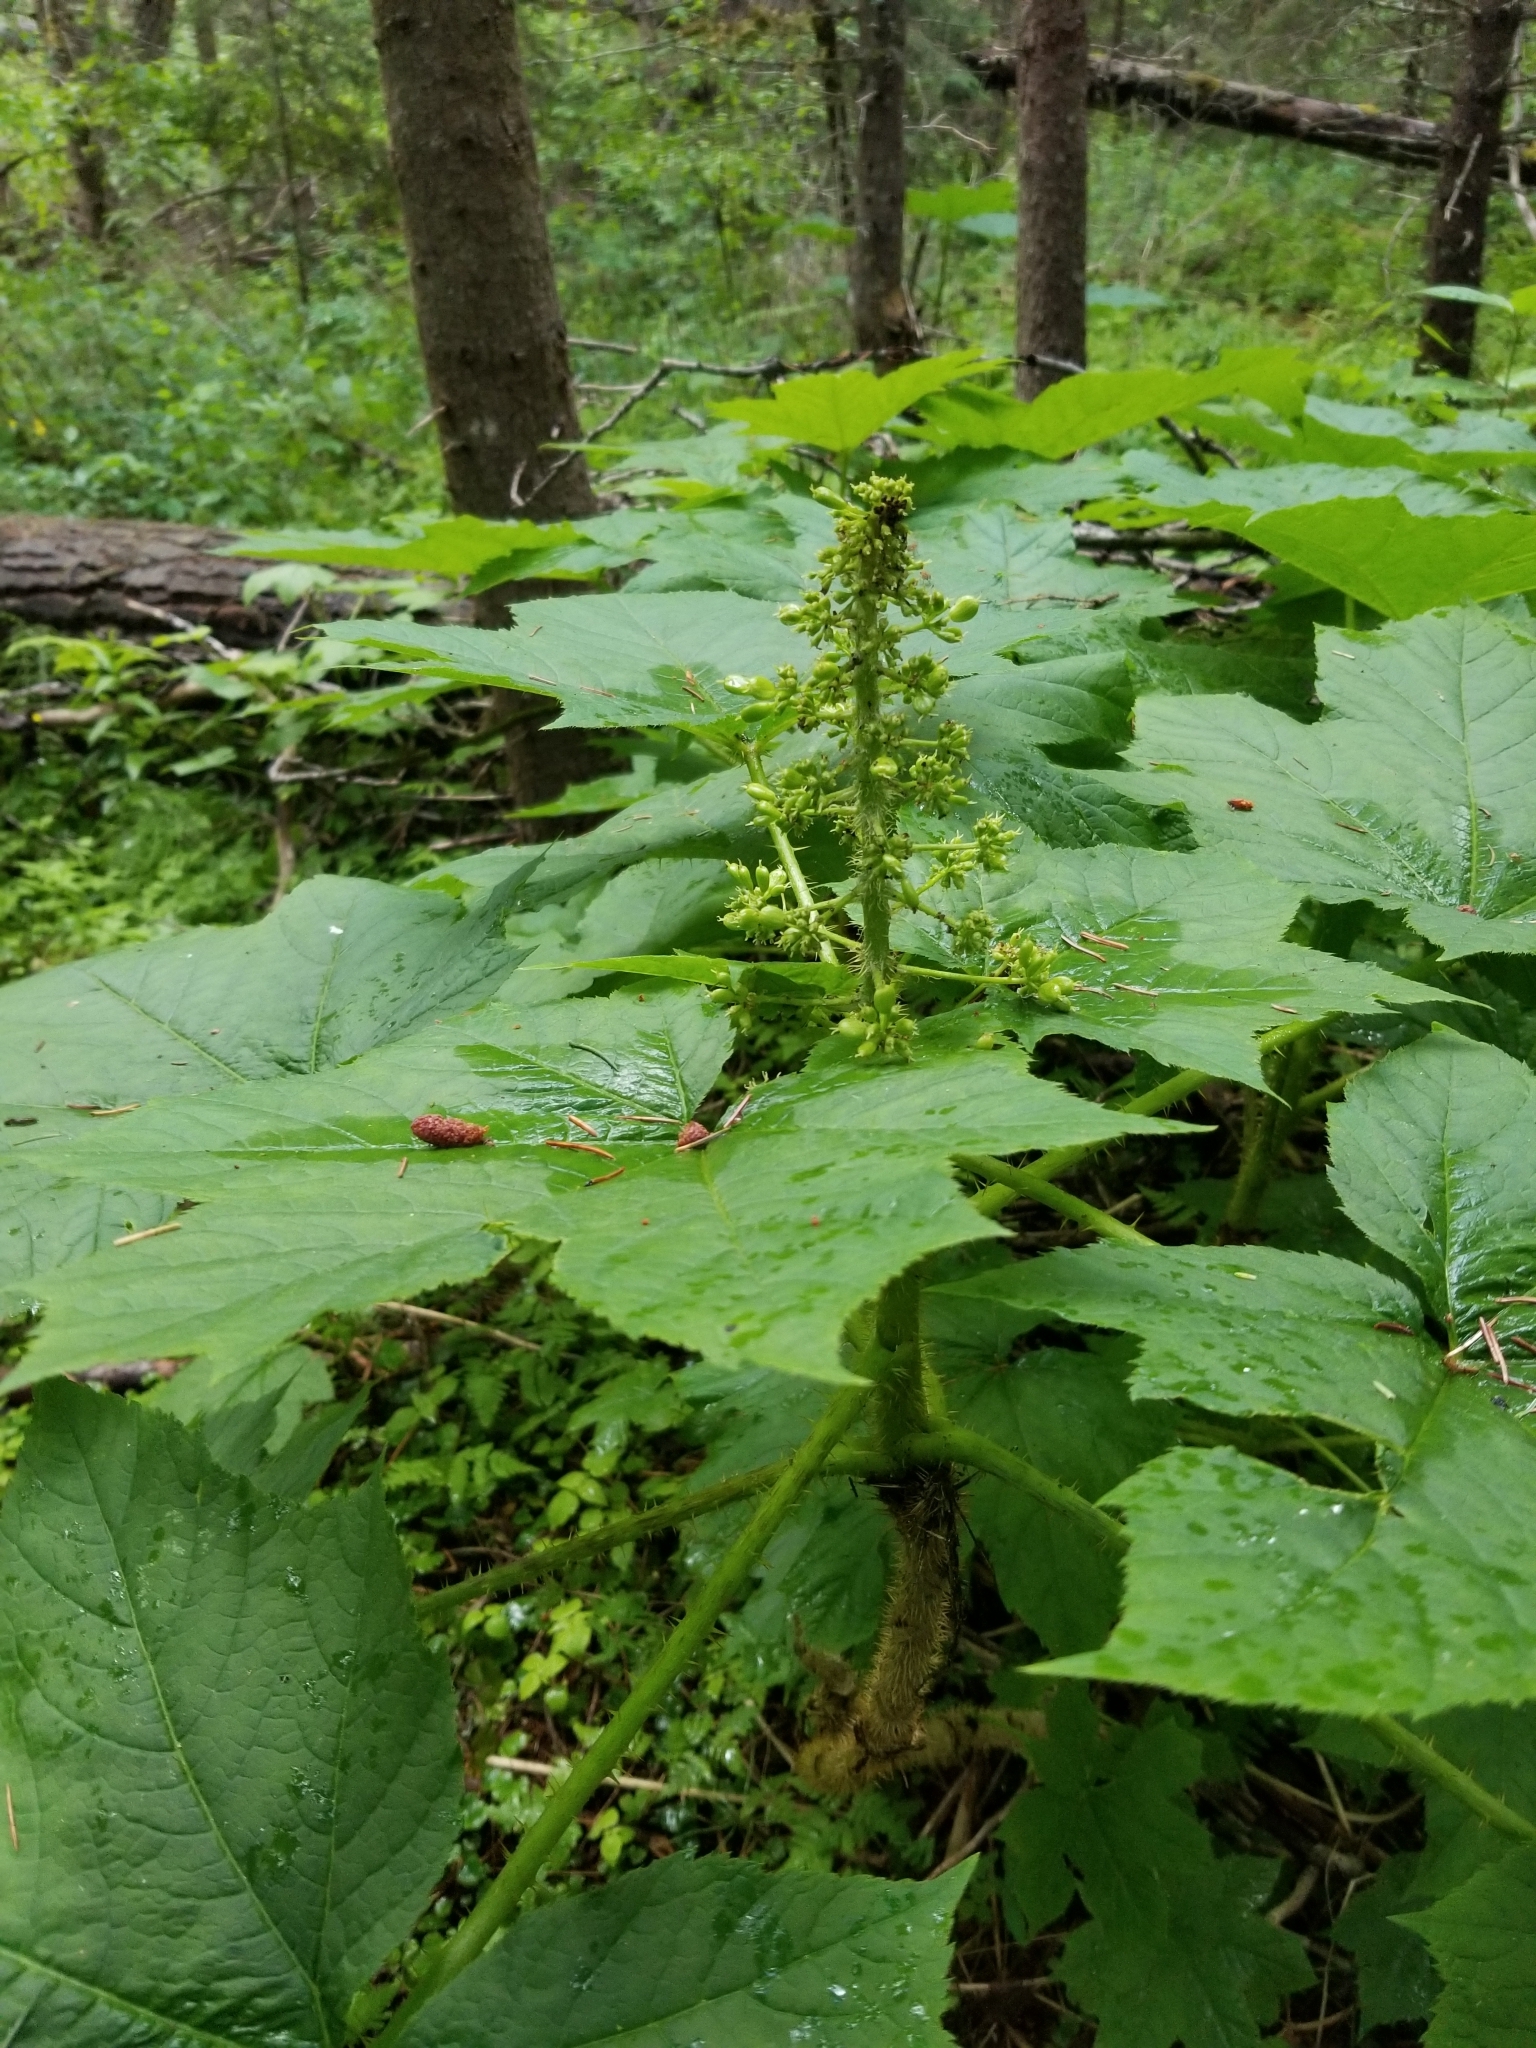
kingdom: Plantae
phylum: Tracheophyta
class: Magnoliopsida
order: Apiales
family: Araliaceae
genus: Oplopanax
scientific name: Oplopanax horridus
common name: Devil's walking-stick
